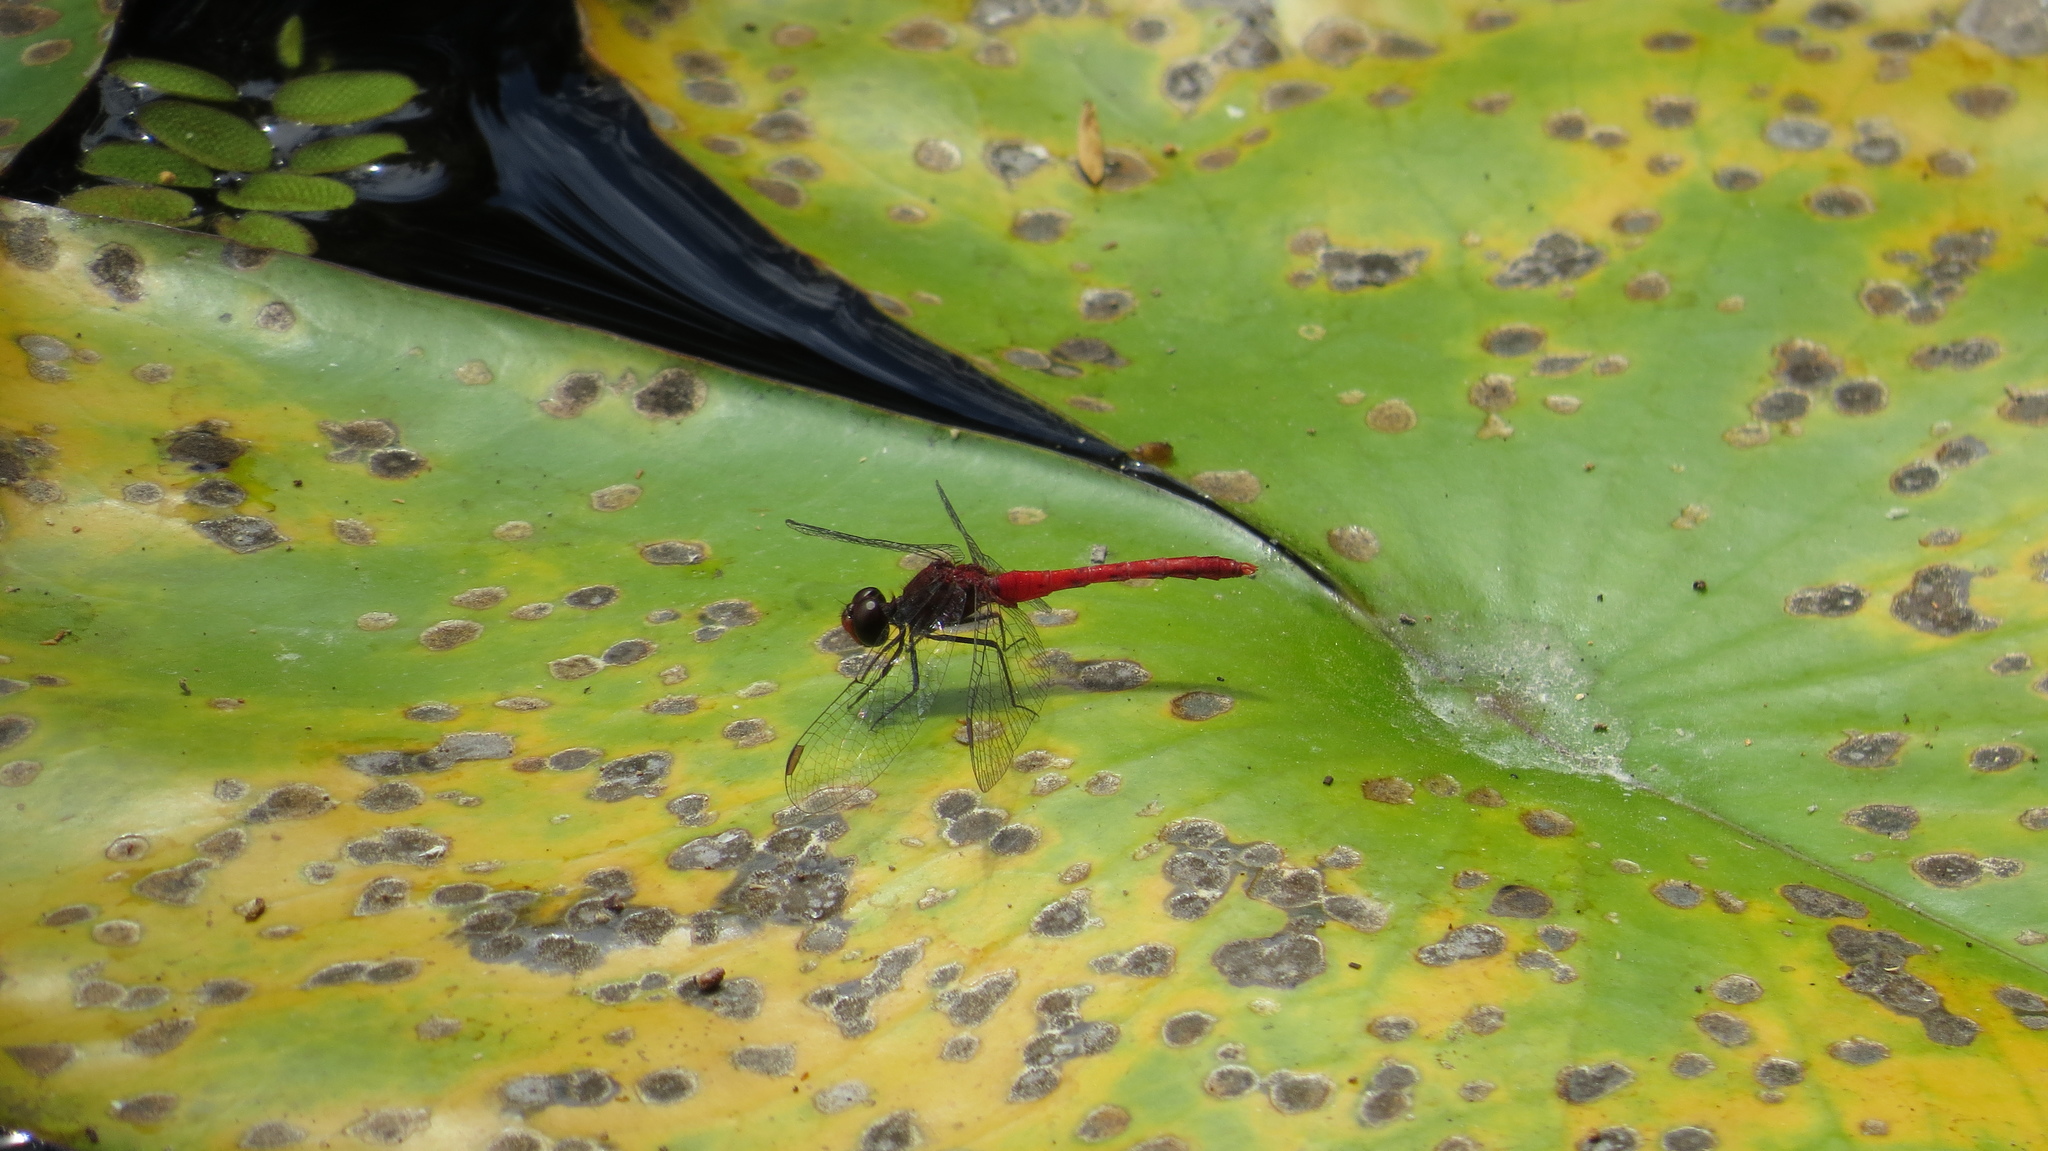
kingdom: Animalia
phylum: Arthropoda
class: Insecta
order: Odonata
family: Libellulidae
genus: Nannodiplax
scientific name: Nannodiplax rubra
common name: Pygmy percher
